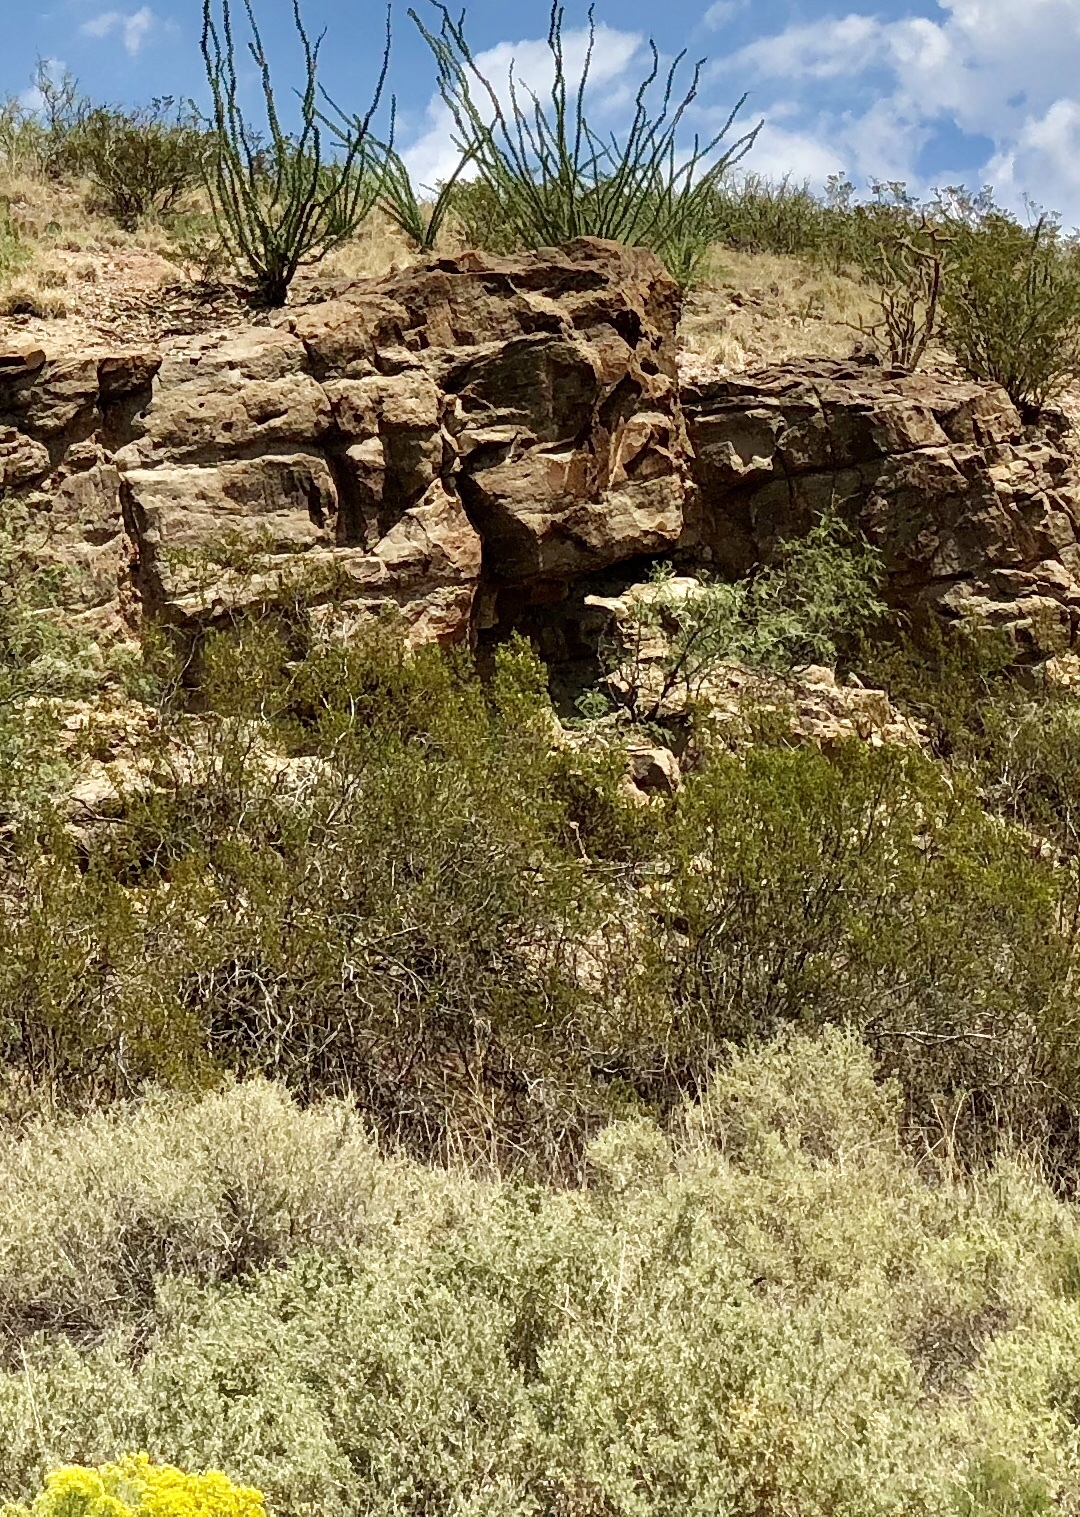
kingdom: Plantae
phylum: Tracheophyta
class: Magnoliopsida
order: Zygophyllales
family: Zygophyllaceae
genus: Larrea
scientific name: Larrea tridentata
